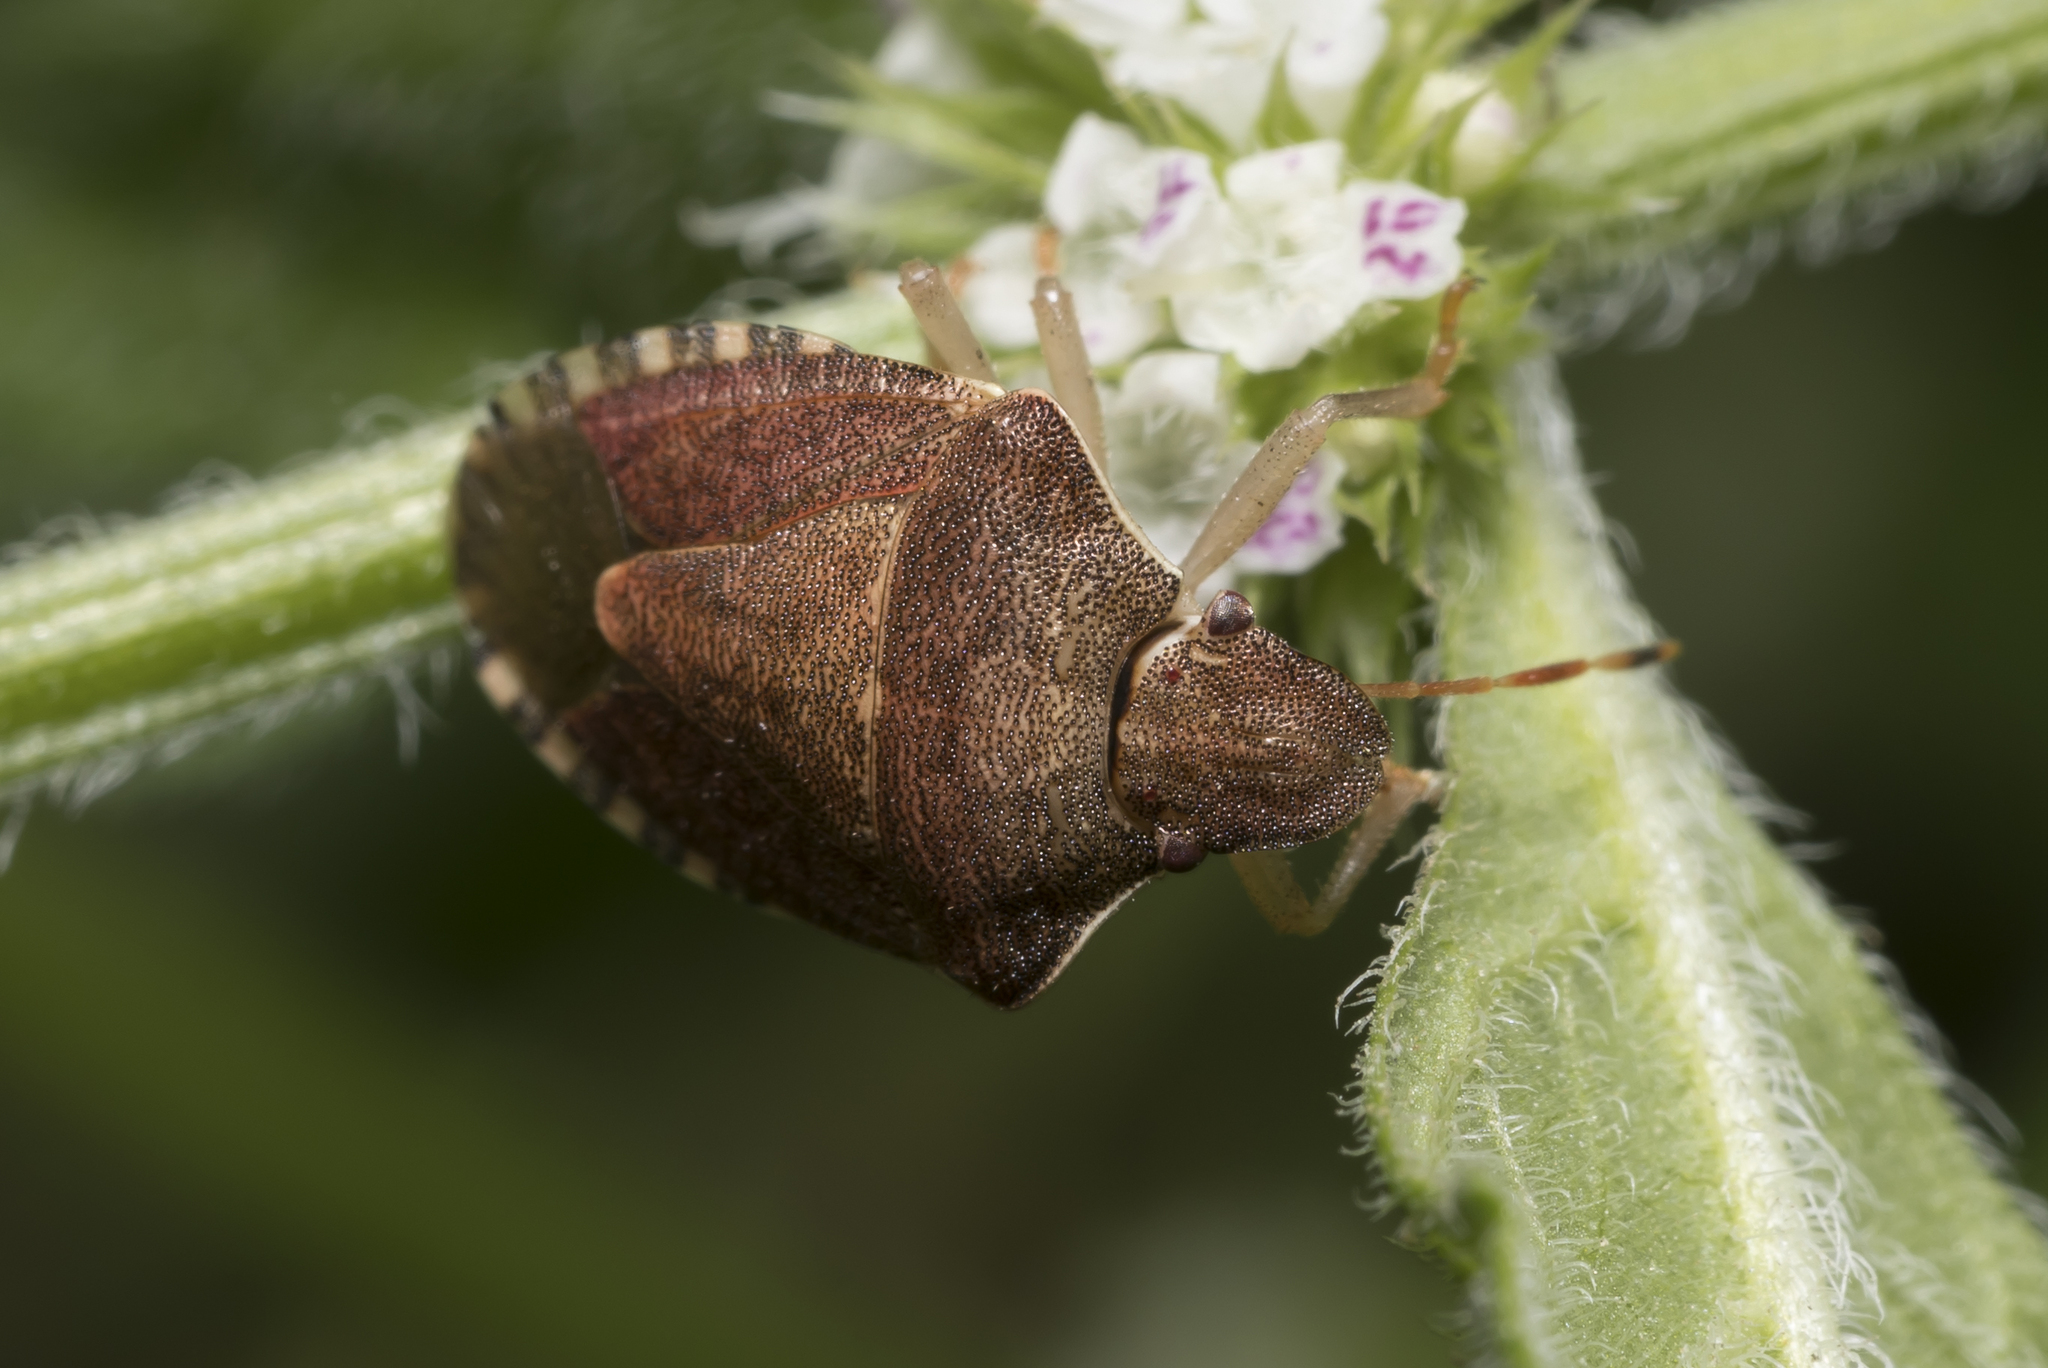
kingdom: Animalia
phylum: Arthropoda
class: Insecta
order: Hemiptera
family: Pentatomidae
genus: Holcostethus
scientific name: Holcostethus strictus
